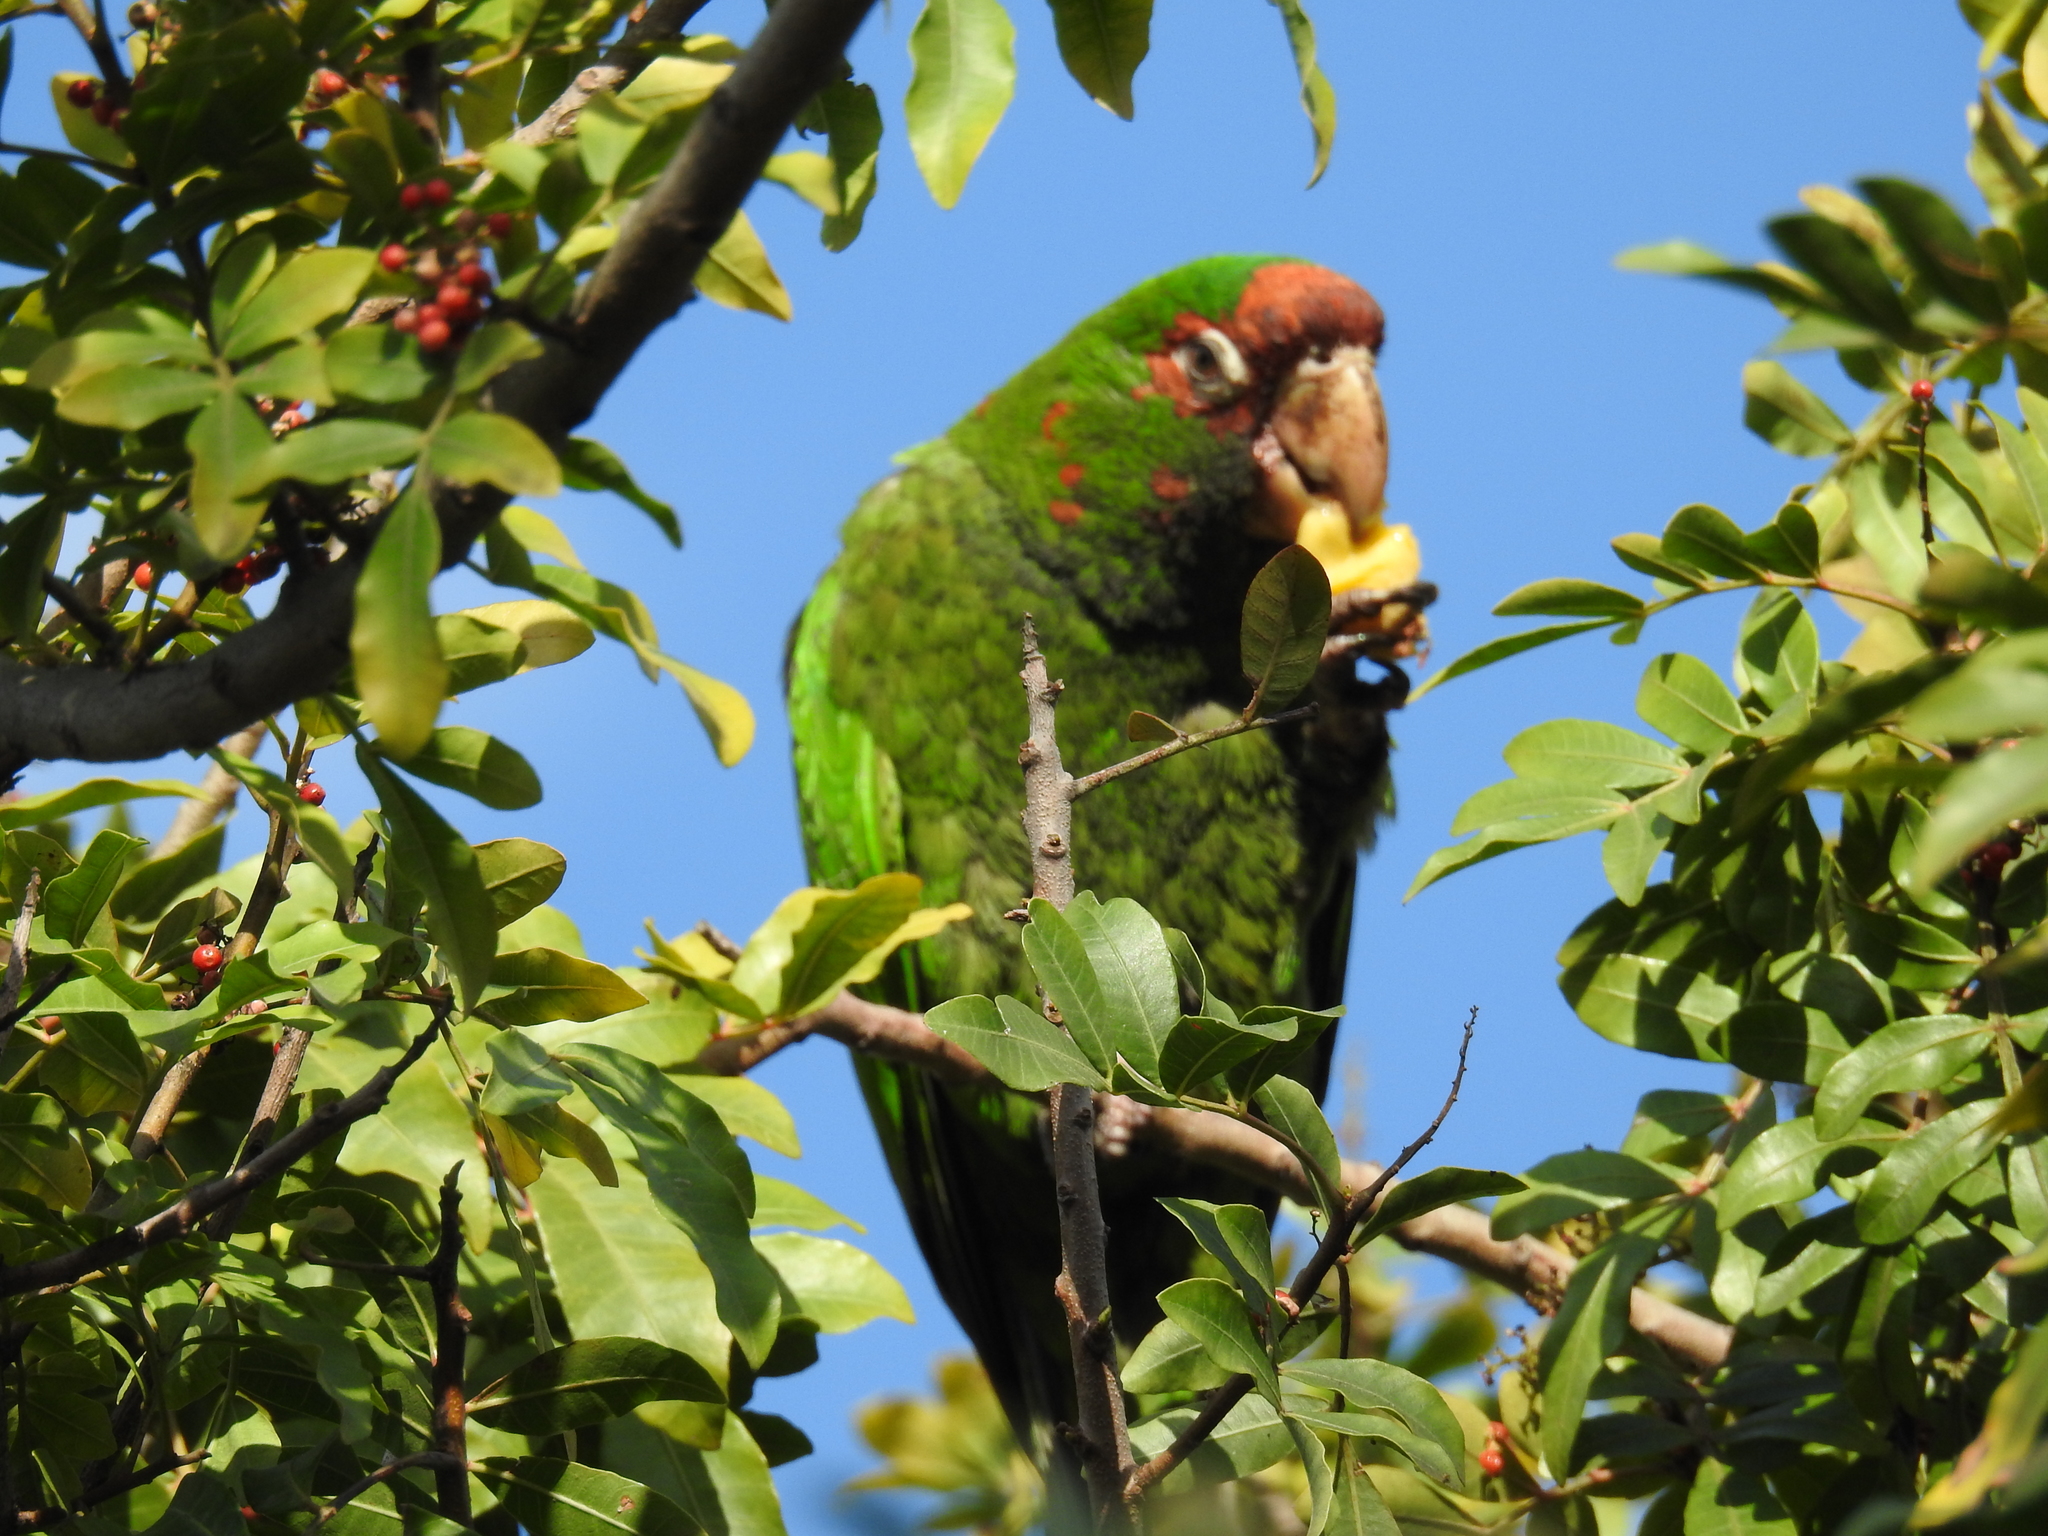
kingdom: Animalia
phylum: Chordata
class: Aves
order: Psittaciformes
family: Psittacidae
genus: Aratinga
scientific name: Aratinga mitrata
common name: Mitred parakeet
